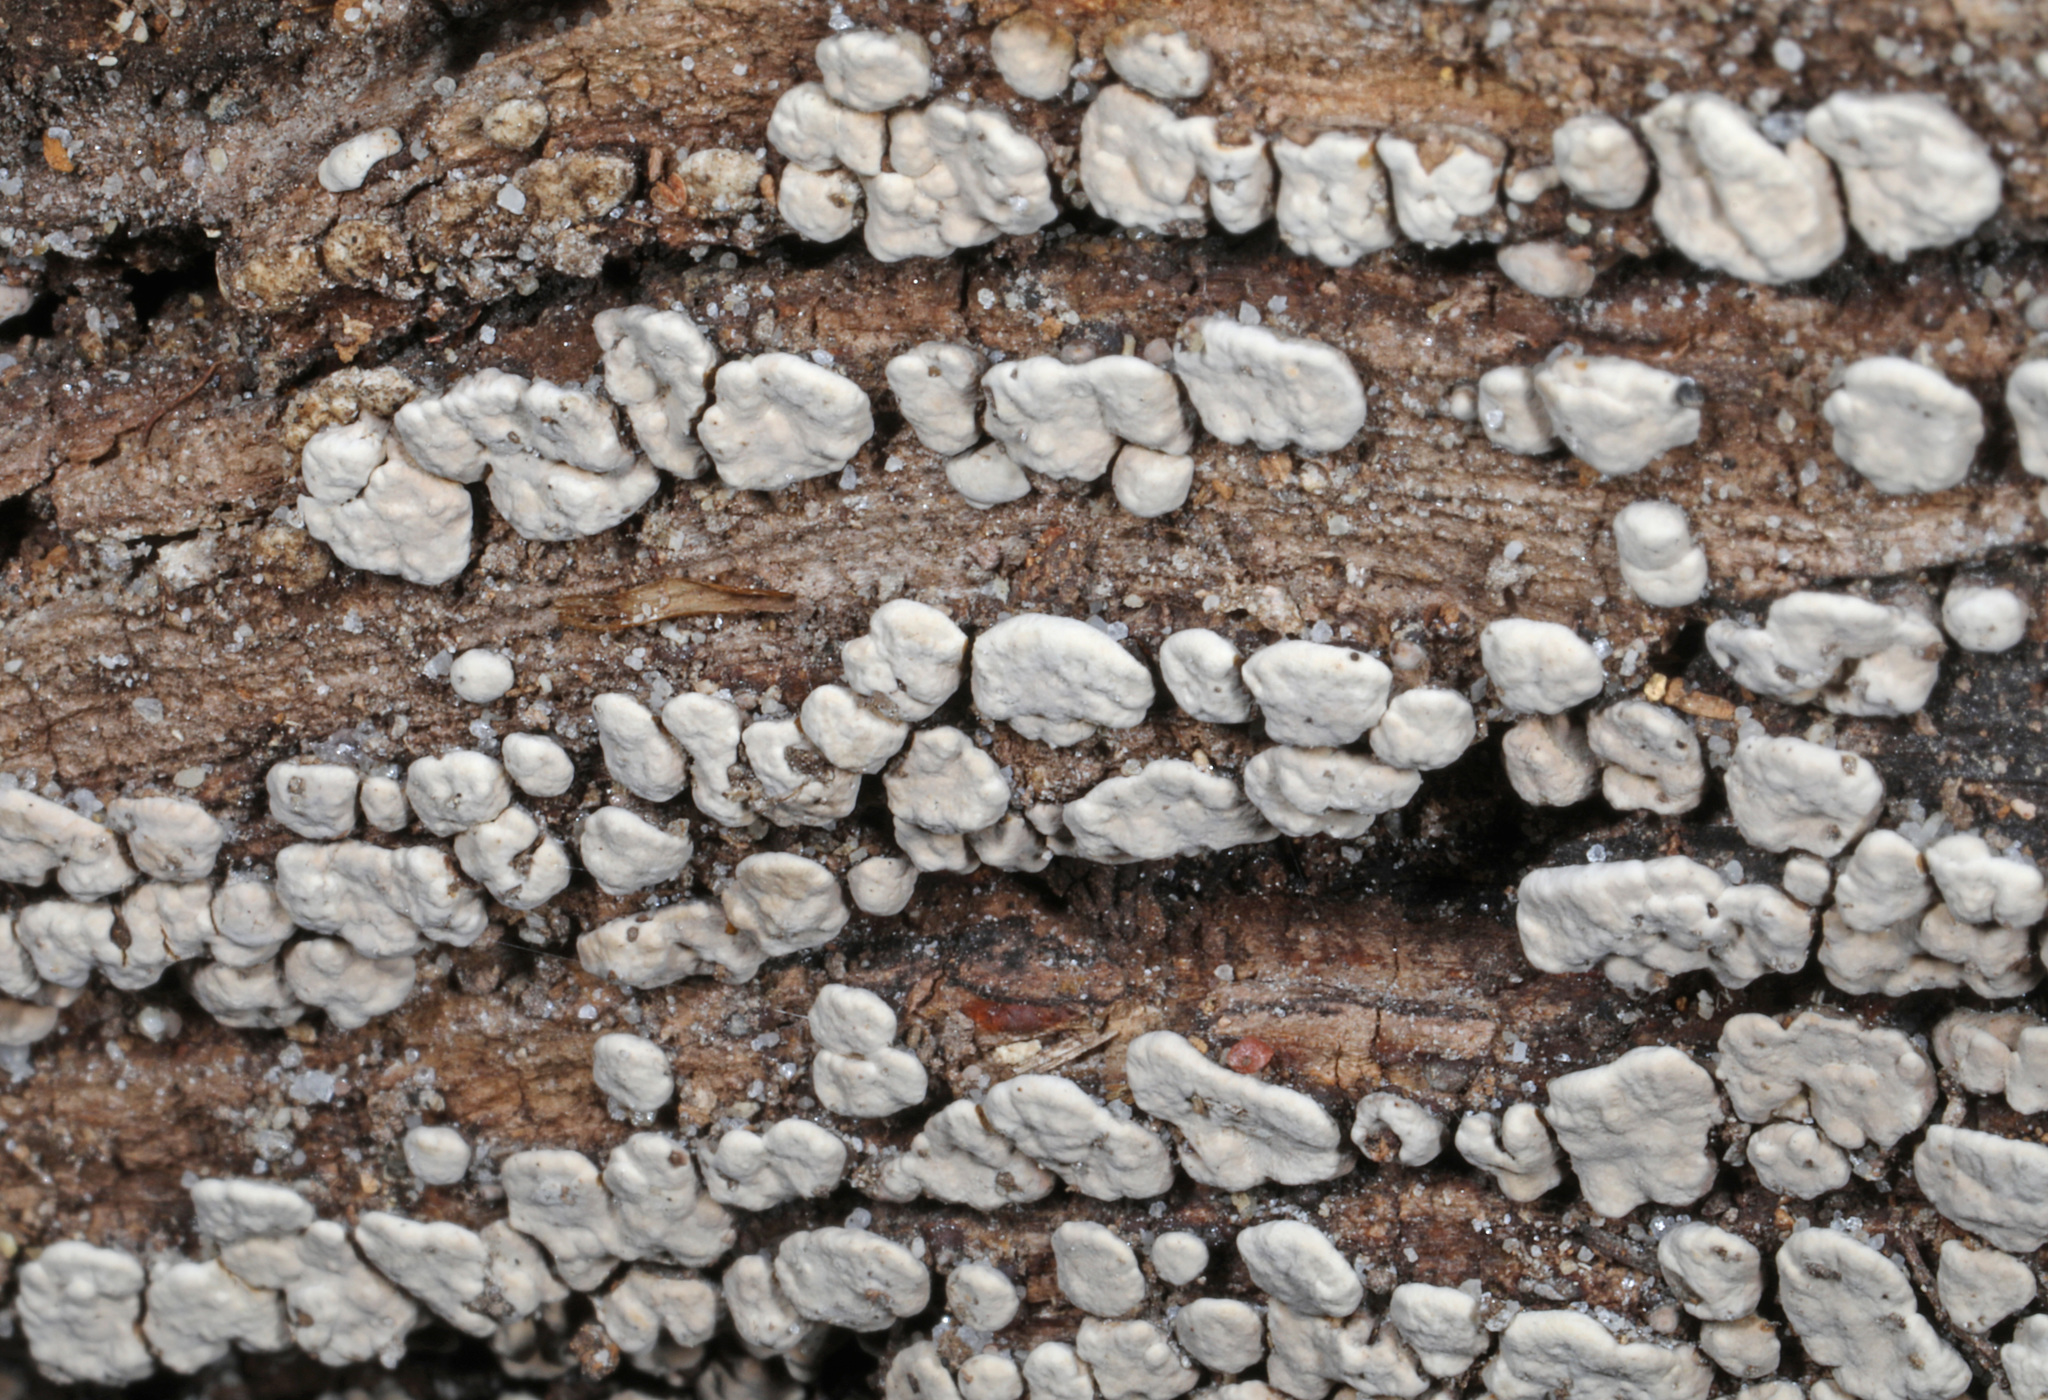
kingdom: Fungi
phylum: Basidiomycota
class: Agaricomycetes
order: Russulales
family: Stereaceae
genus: Xylobolus
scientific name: Xylobolus frustulatus
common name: Ceramic parchment
